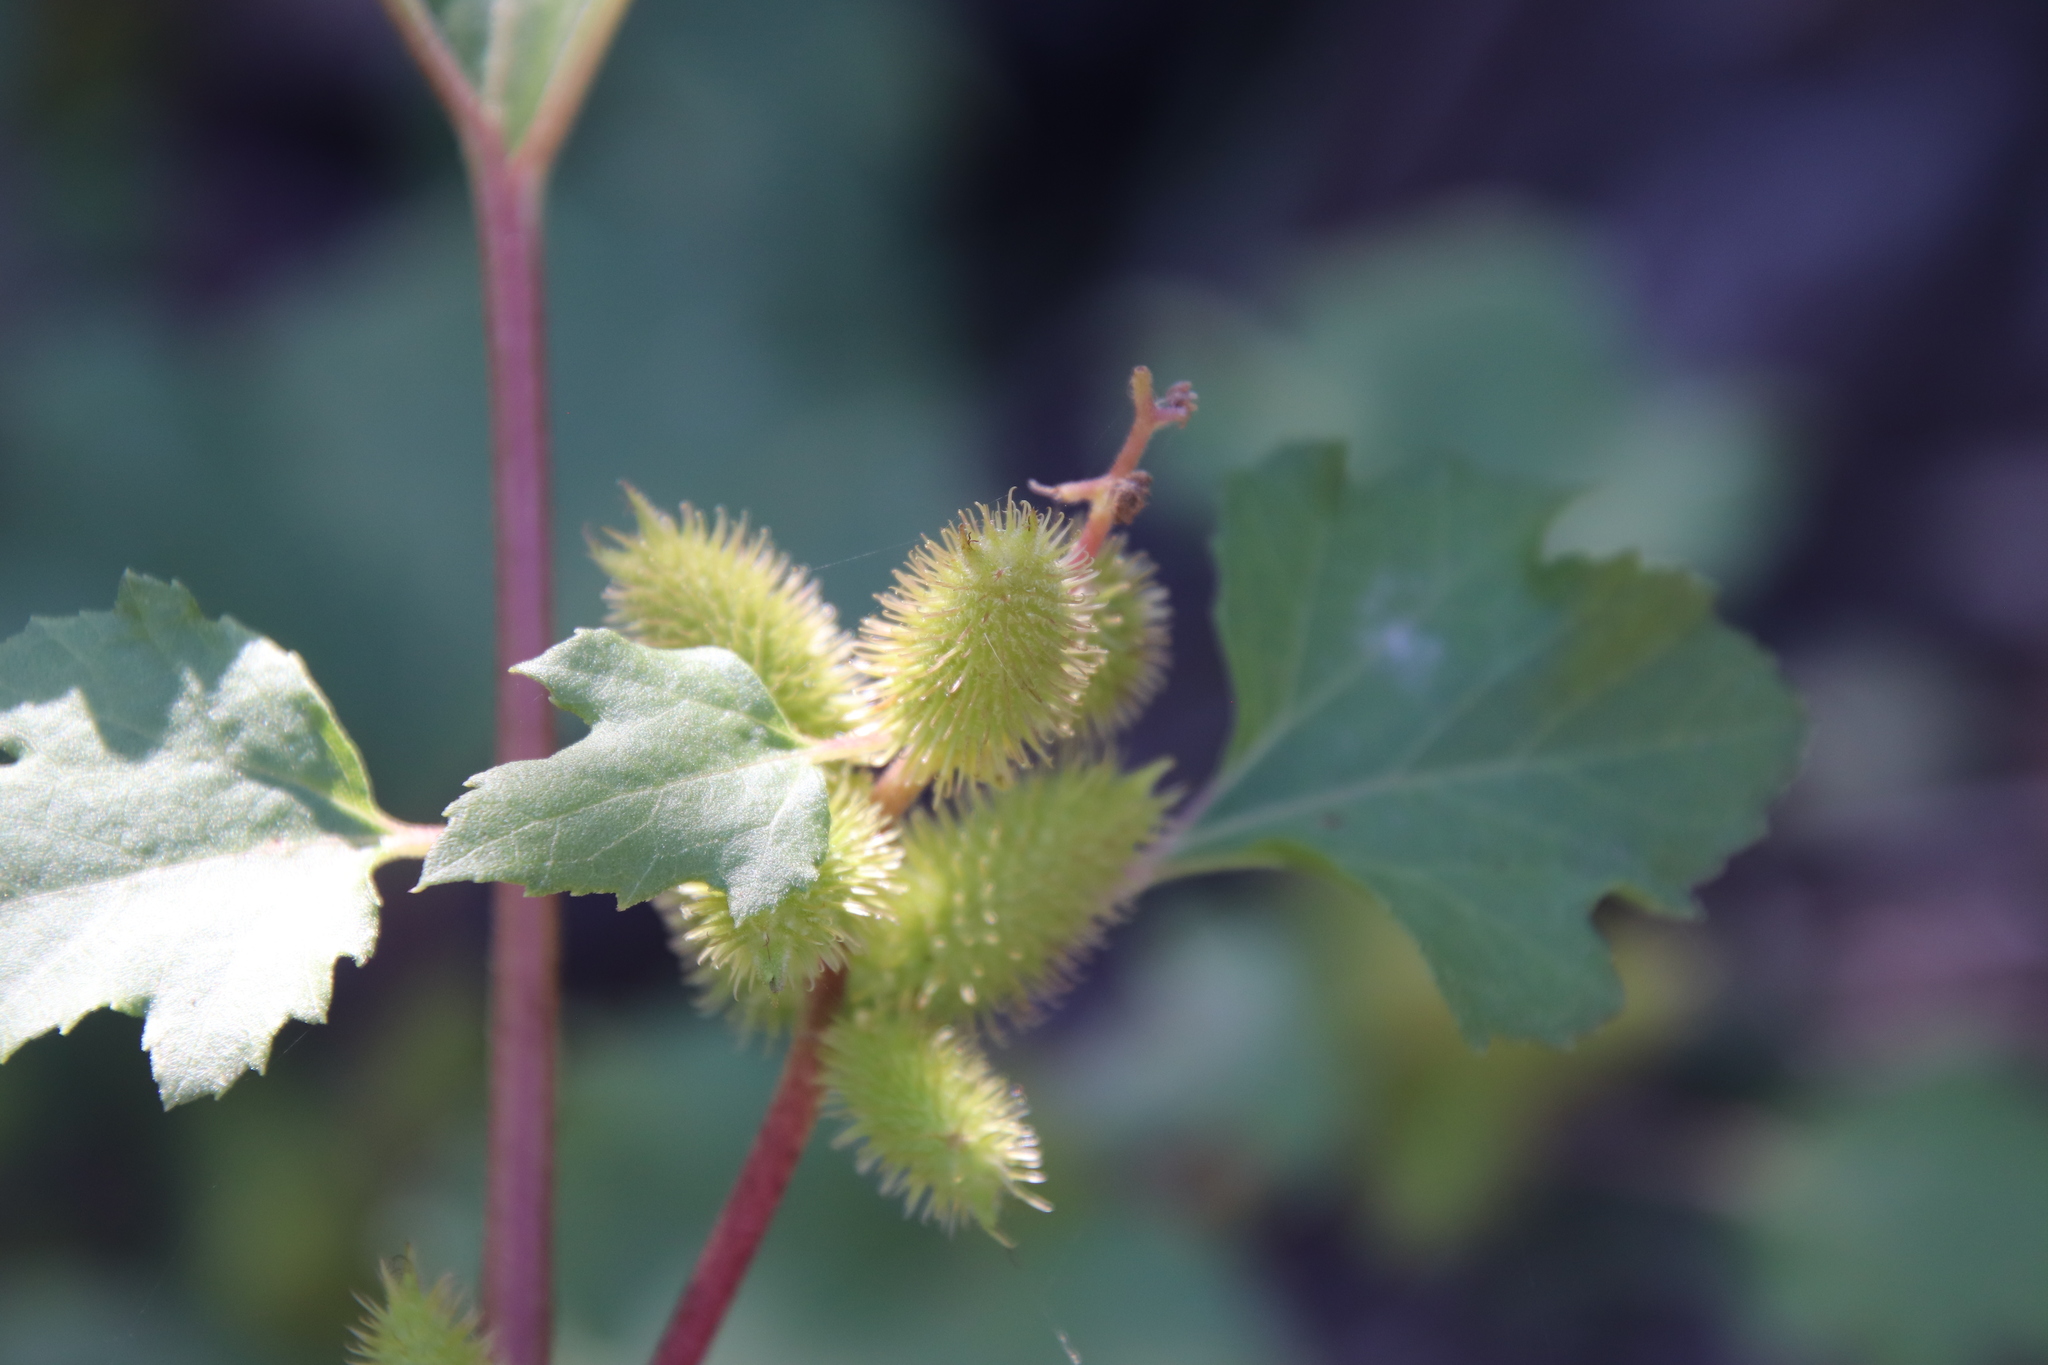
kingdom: Plantae
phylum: Tracheophyta
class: Magnoliopsida
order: Asterales
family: Asteraceae
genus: Xanthium
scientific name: Xanthium strumarium
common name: Rough cocklebur
